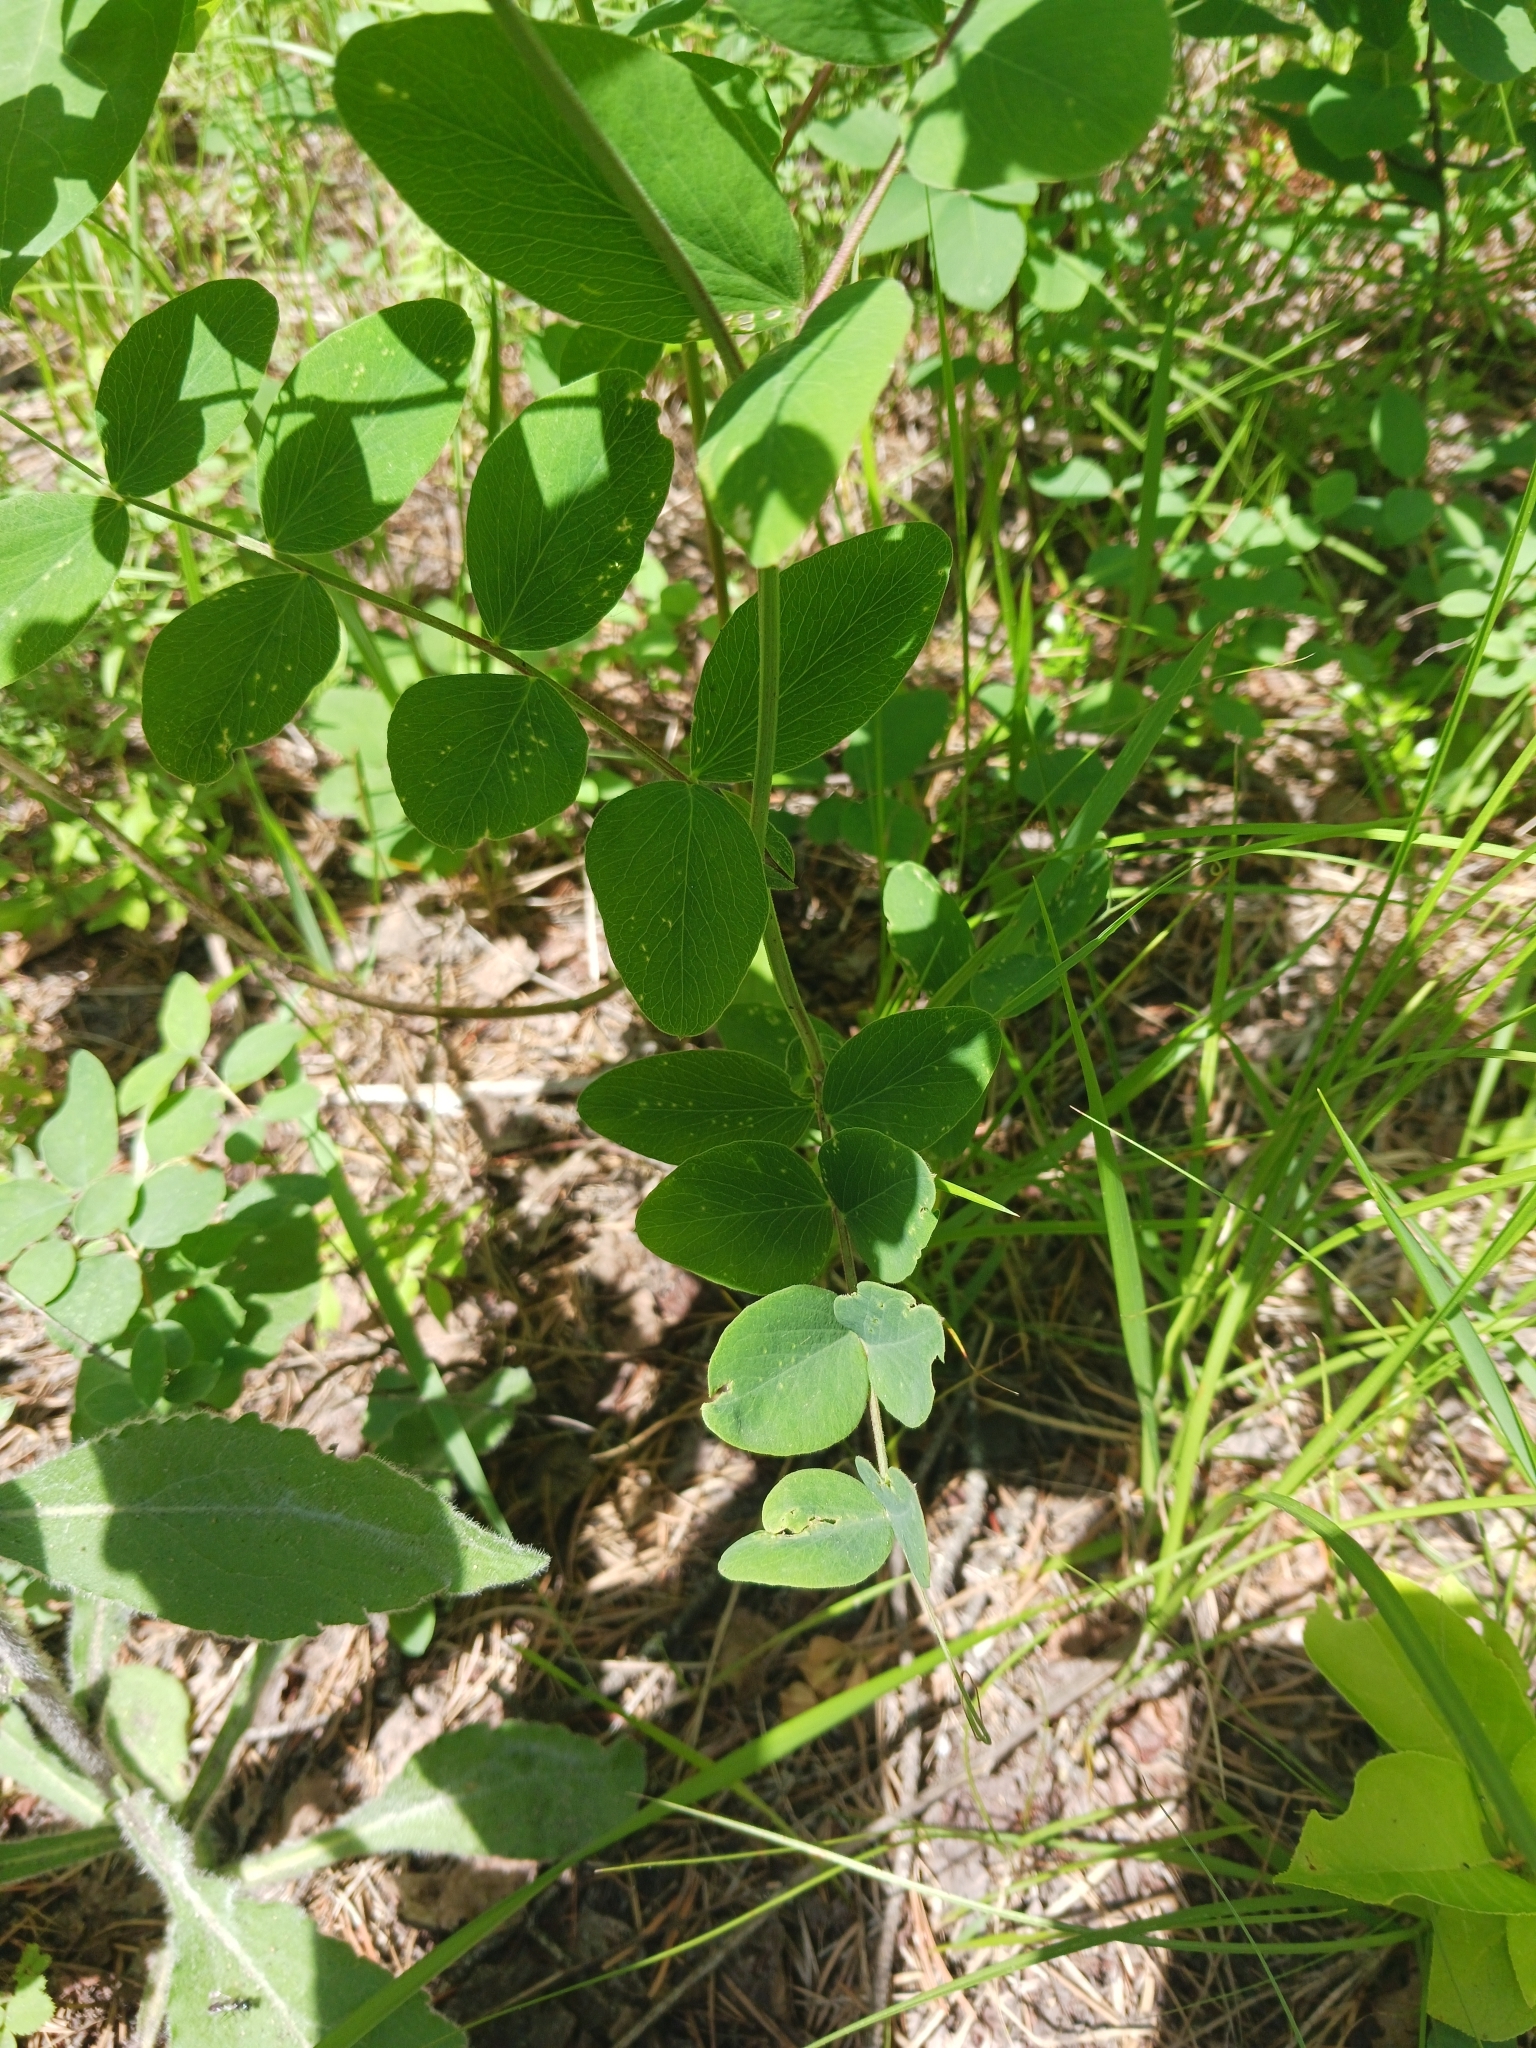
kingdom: Plantae
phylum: Tracheophyta
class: Magnoliopsida
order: Fabales
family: Fabaceae
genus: Lathyrus
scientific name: Lathyrus venosus
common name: Forest-pea
